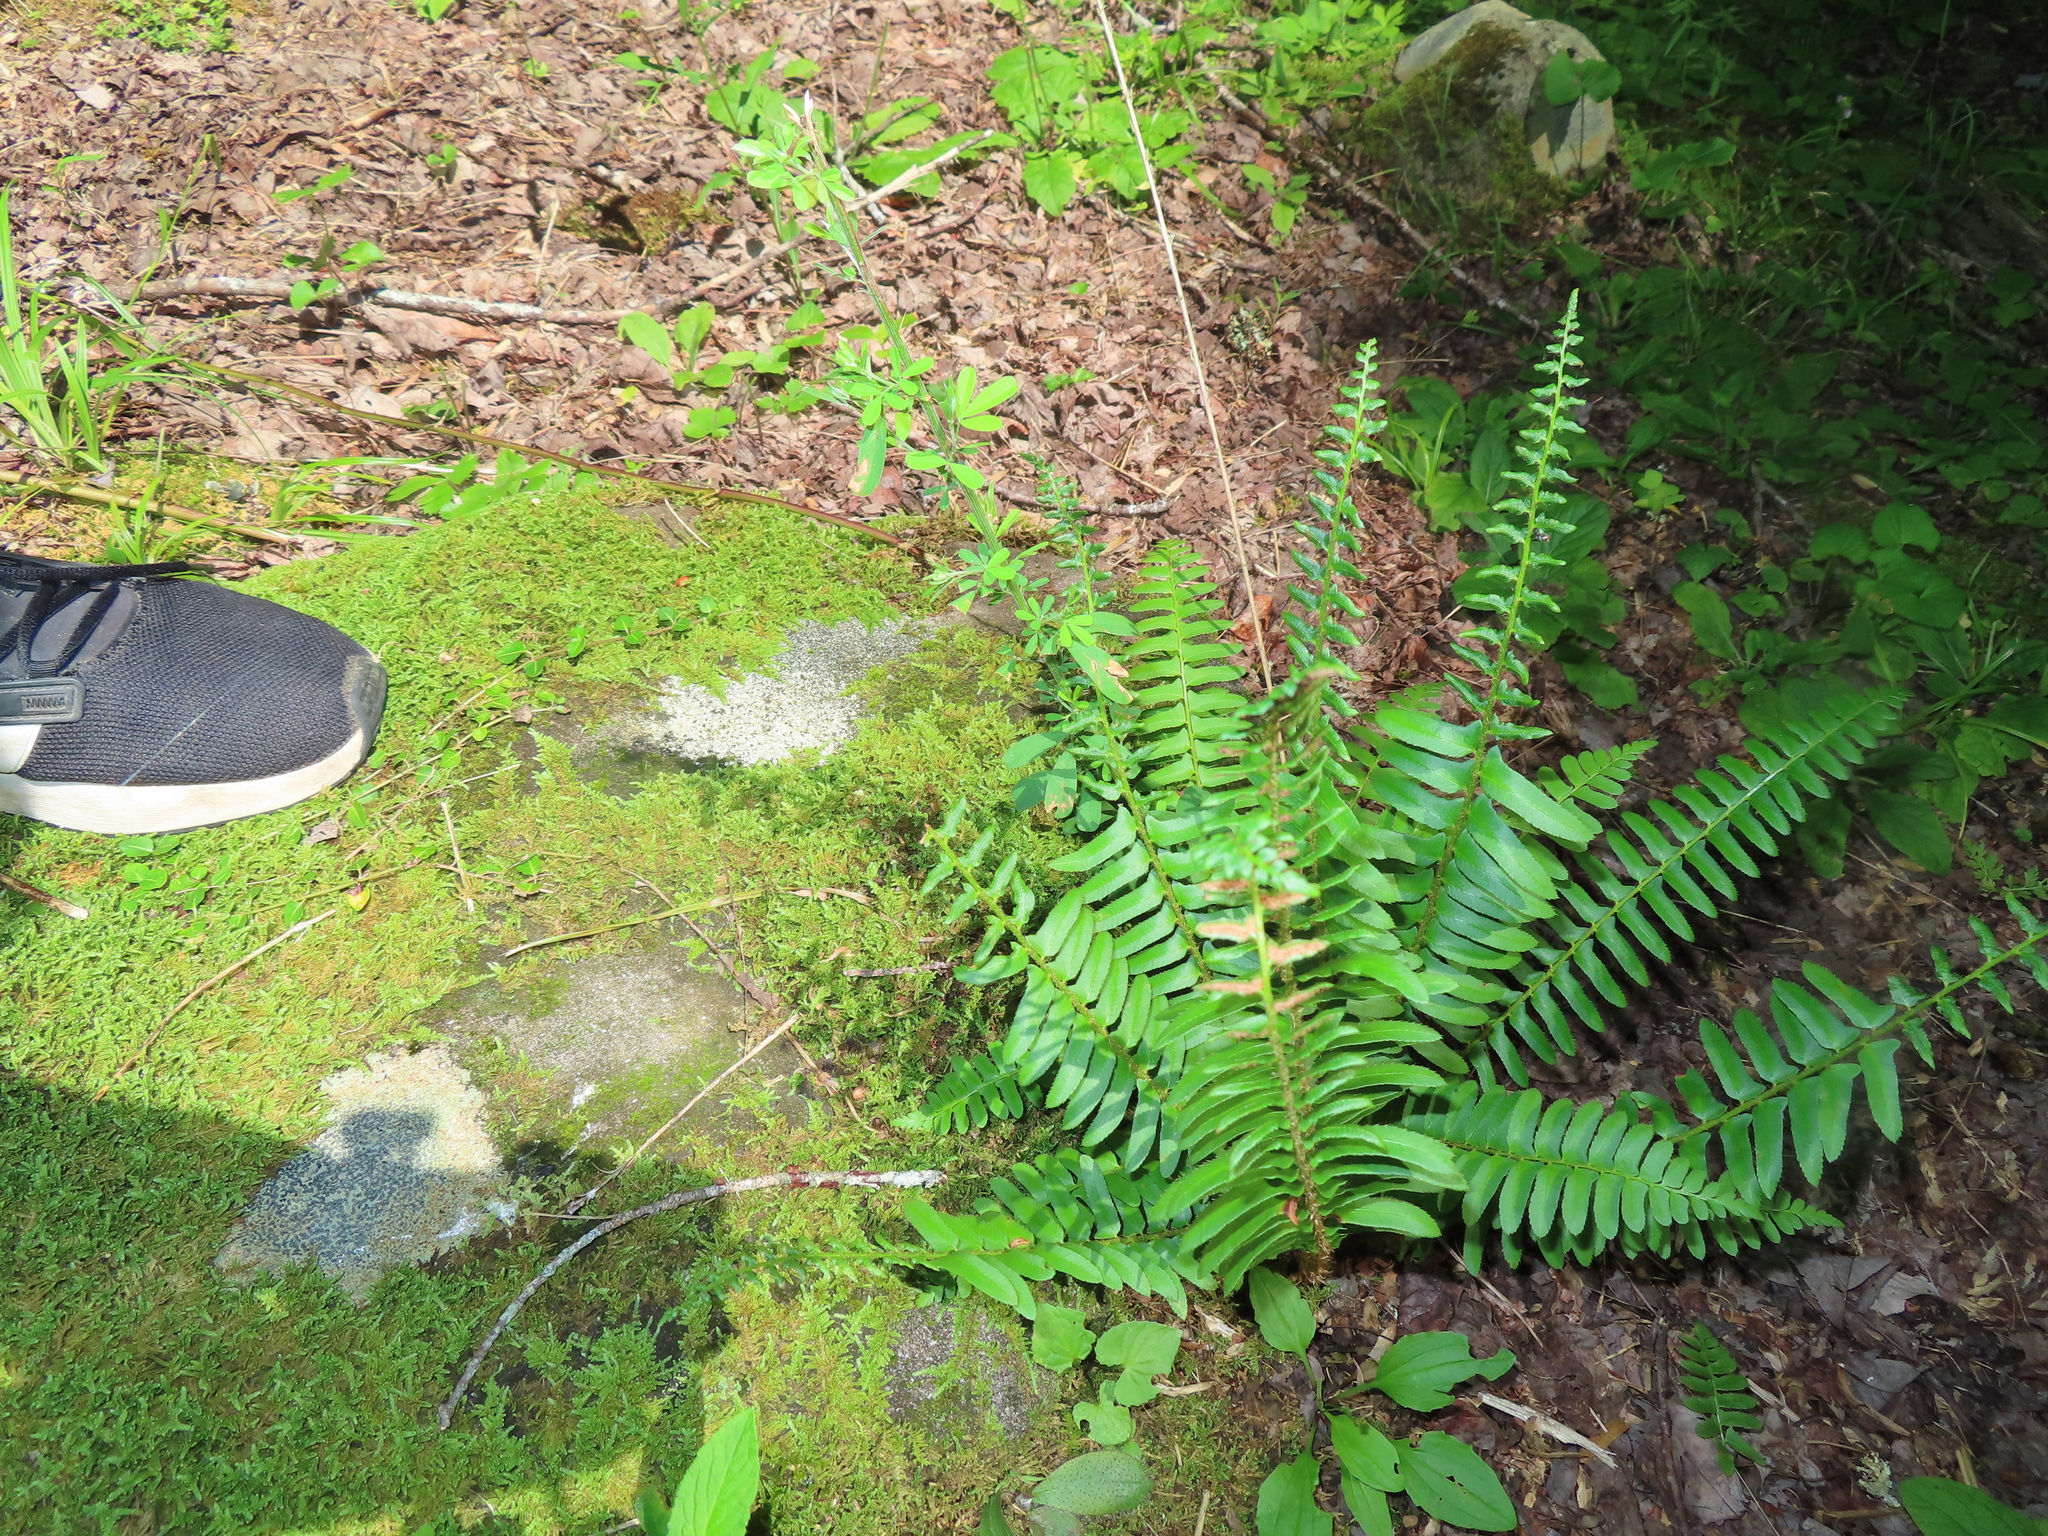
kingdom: Plantae
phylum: Tracheophyta
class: Polypodiopsida
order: Polypodiales
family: Dryopteridaceae
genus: Polystichum
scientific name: Polystichum acrostichoides
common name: Christmas fern
